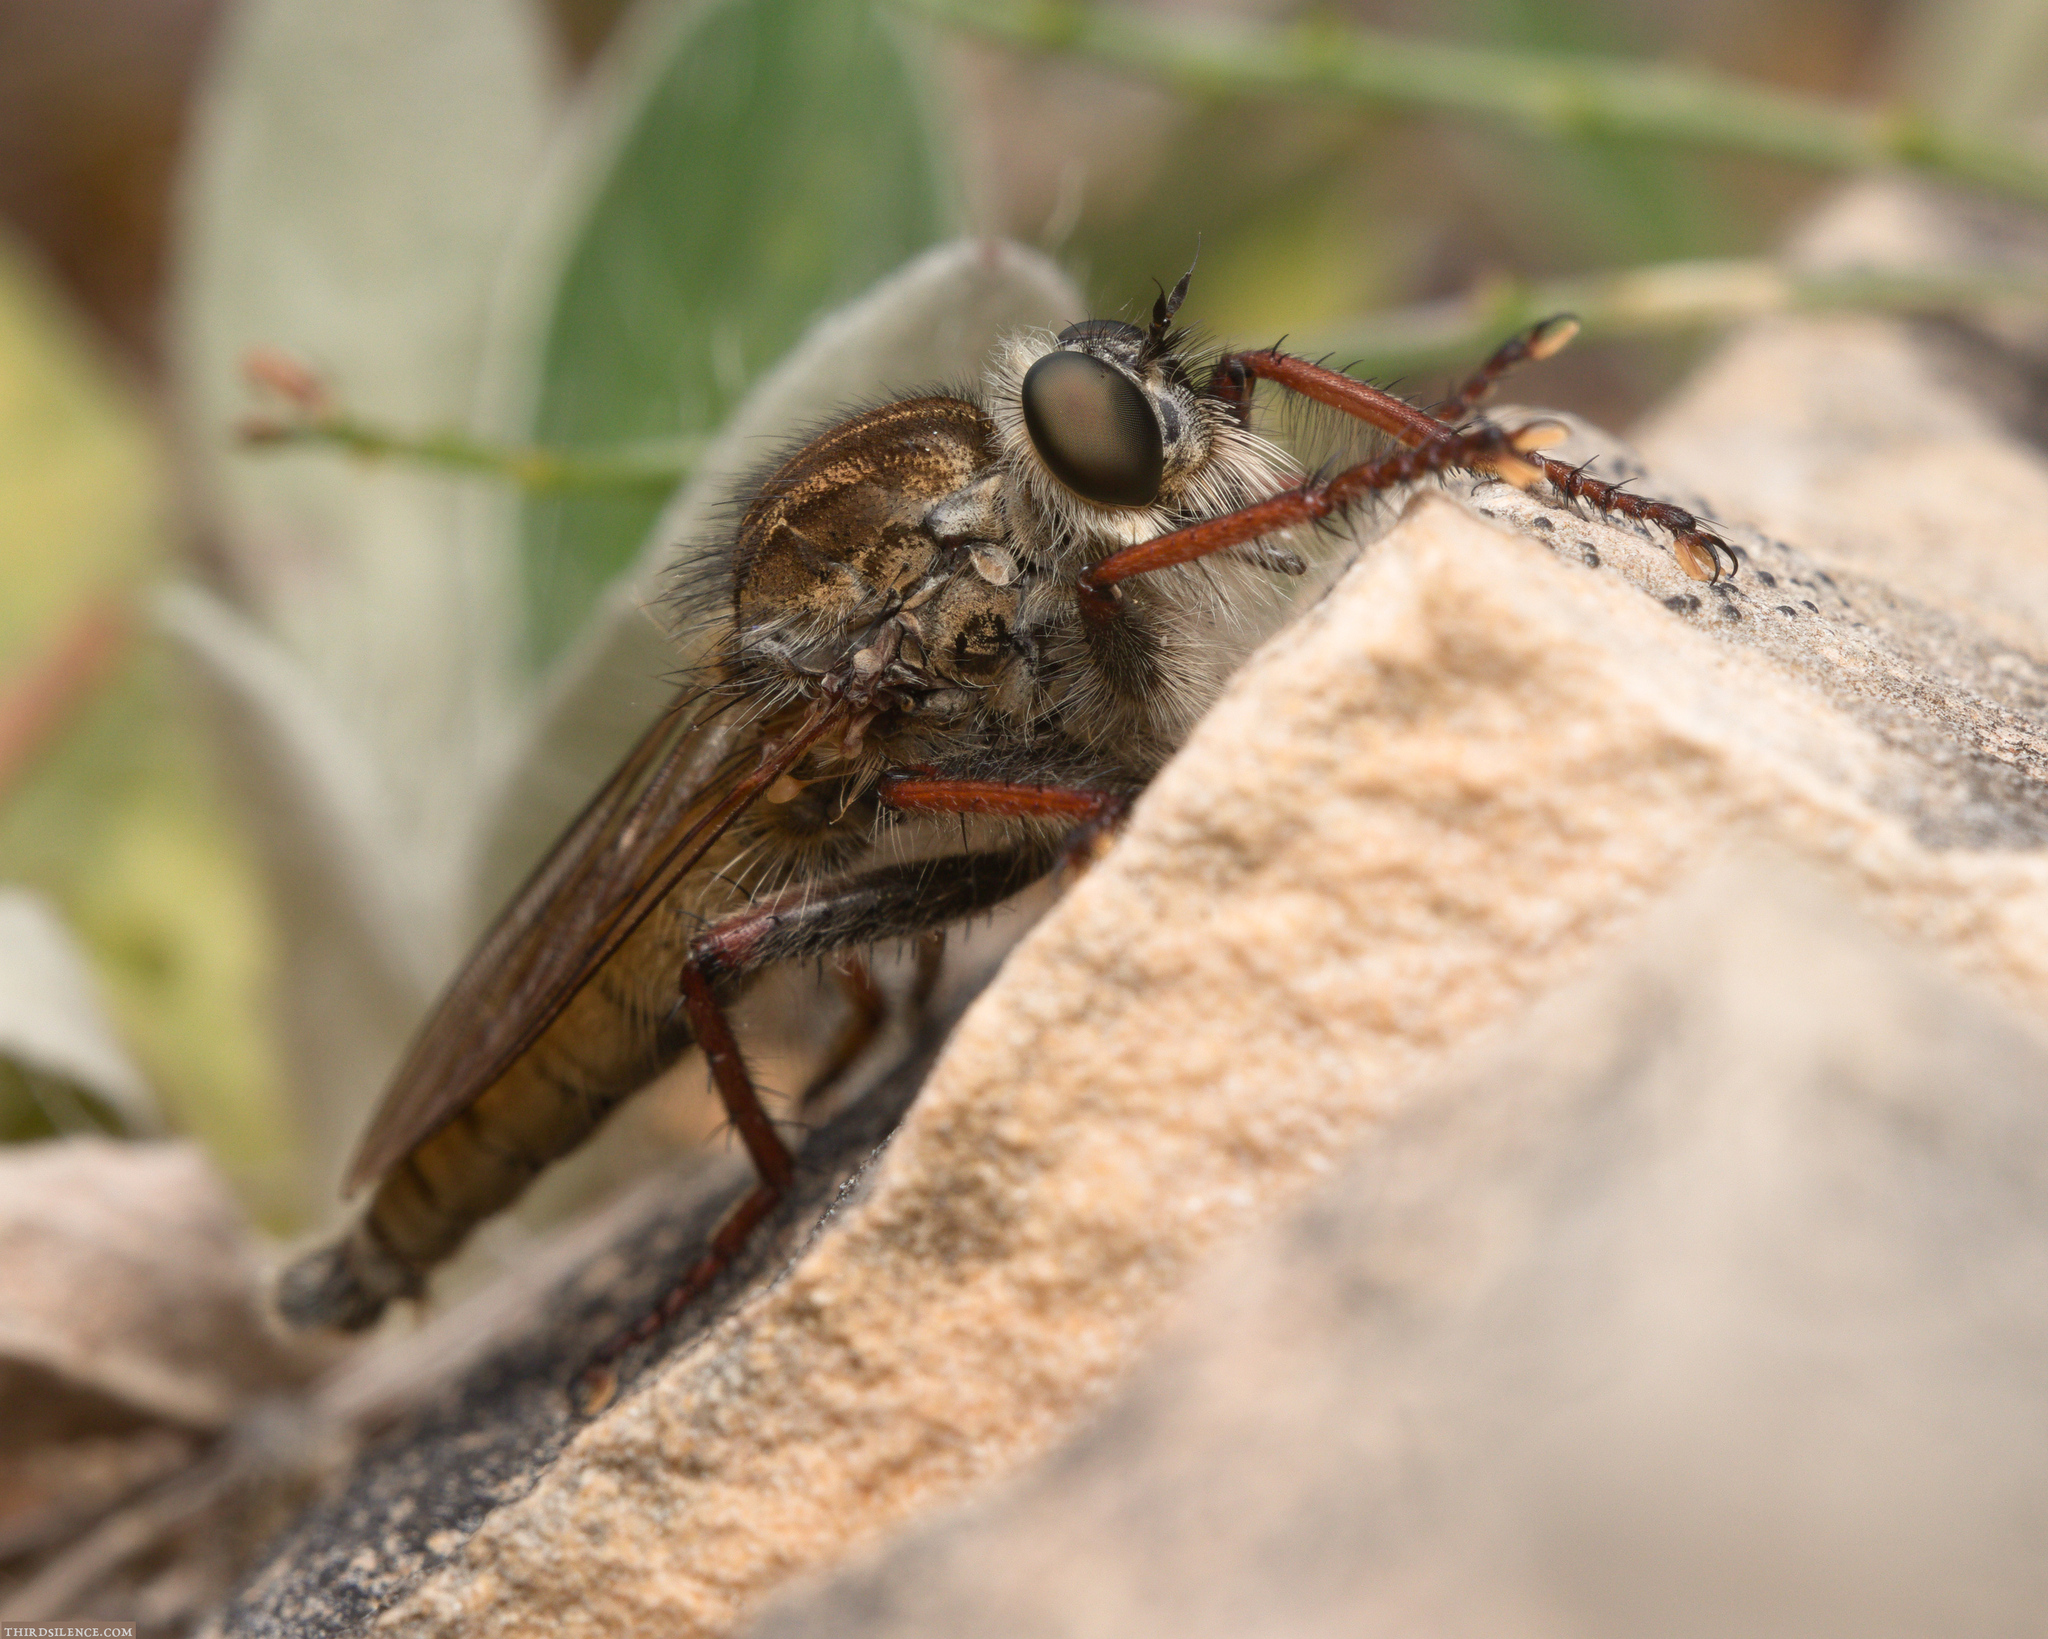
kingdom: Animalia
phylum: Arthropoda
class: Insecta
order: Diptera
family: Asilidae
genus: Machimus
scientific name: Machimus chrysitis
